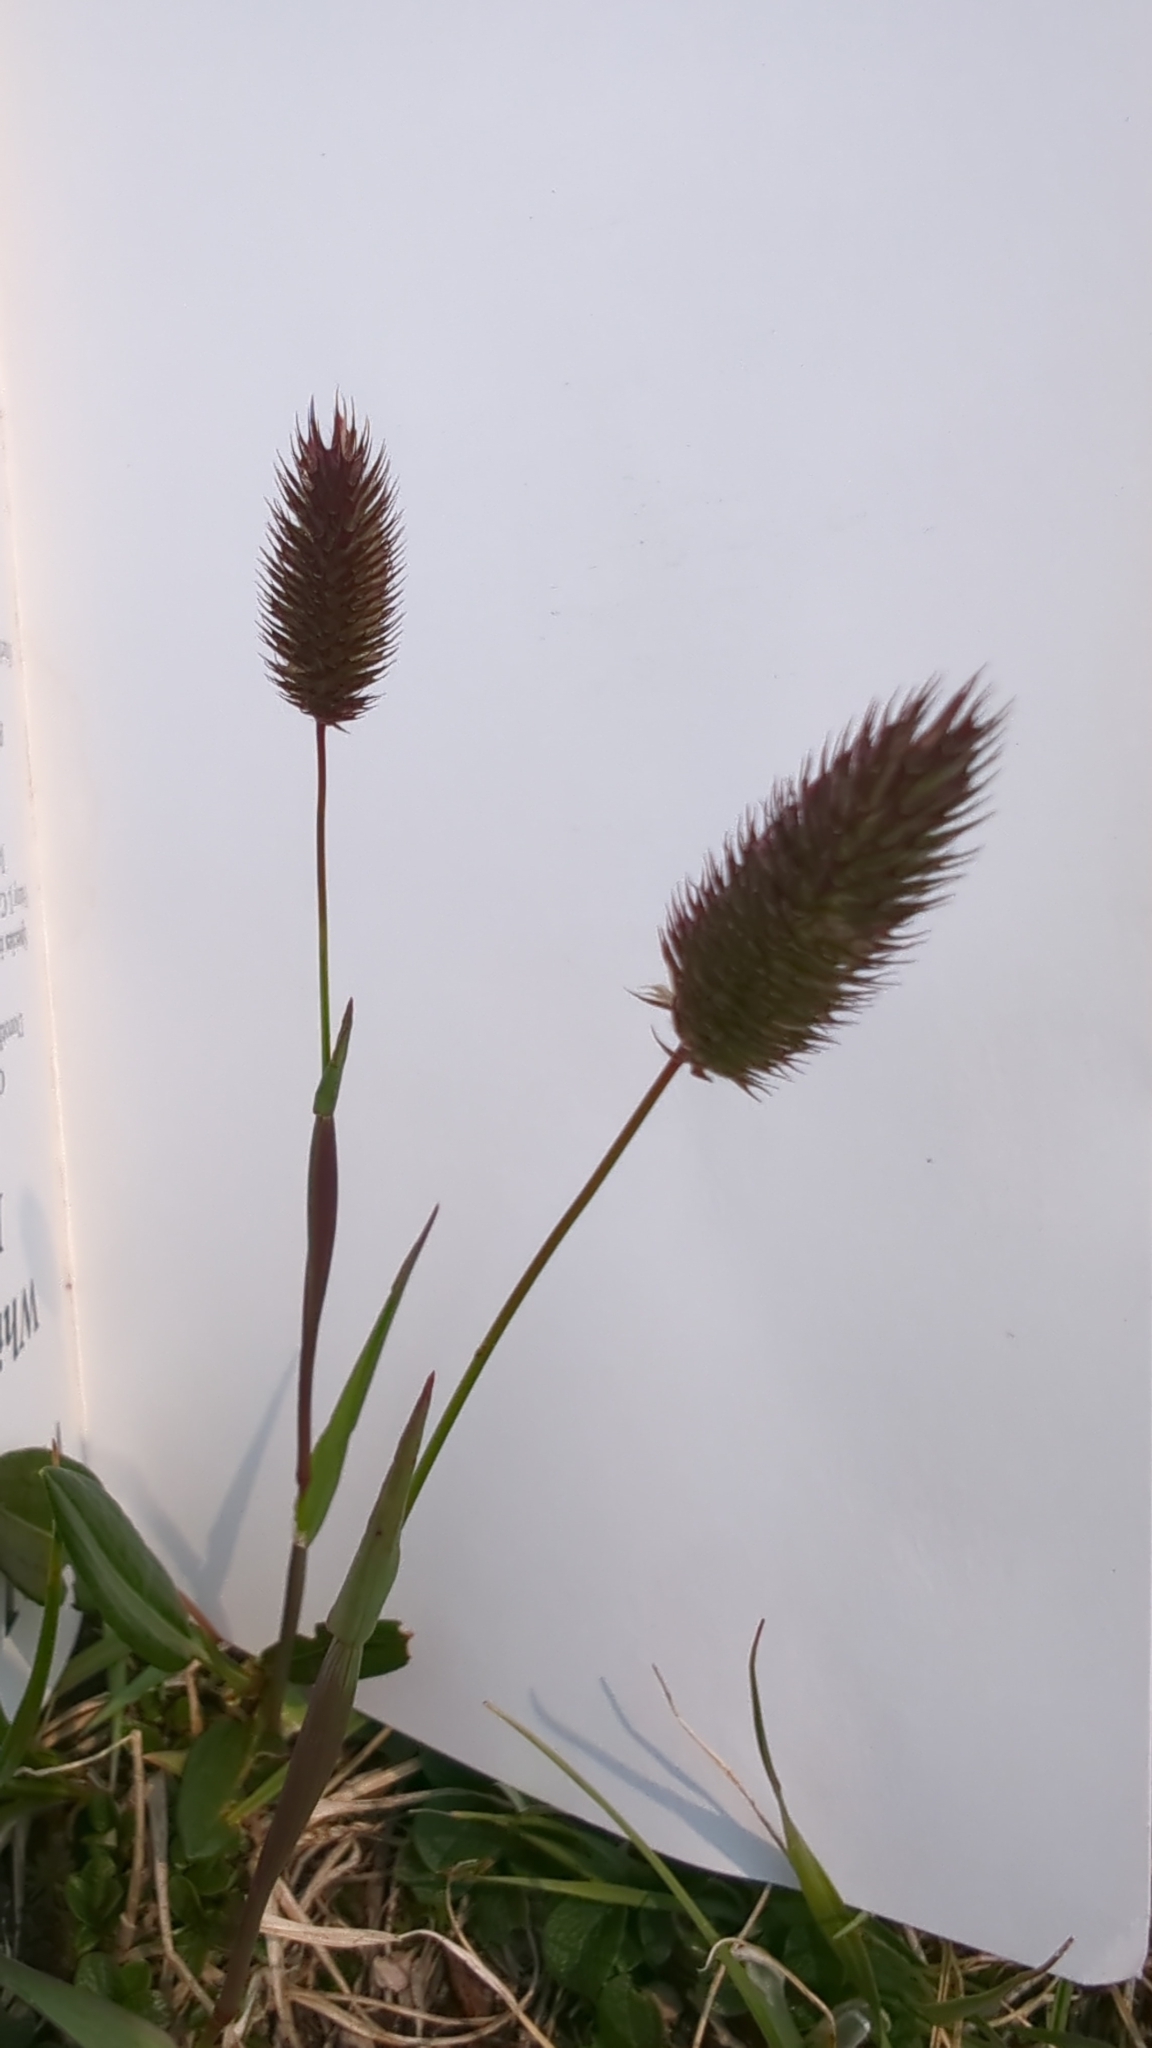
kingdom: Plantae
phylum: Tracheophyta
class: Liliopsida
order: Poales
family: Poaceae
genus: Phleum
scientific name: Phleum alpinum
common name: Alpine cat's-tail
